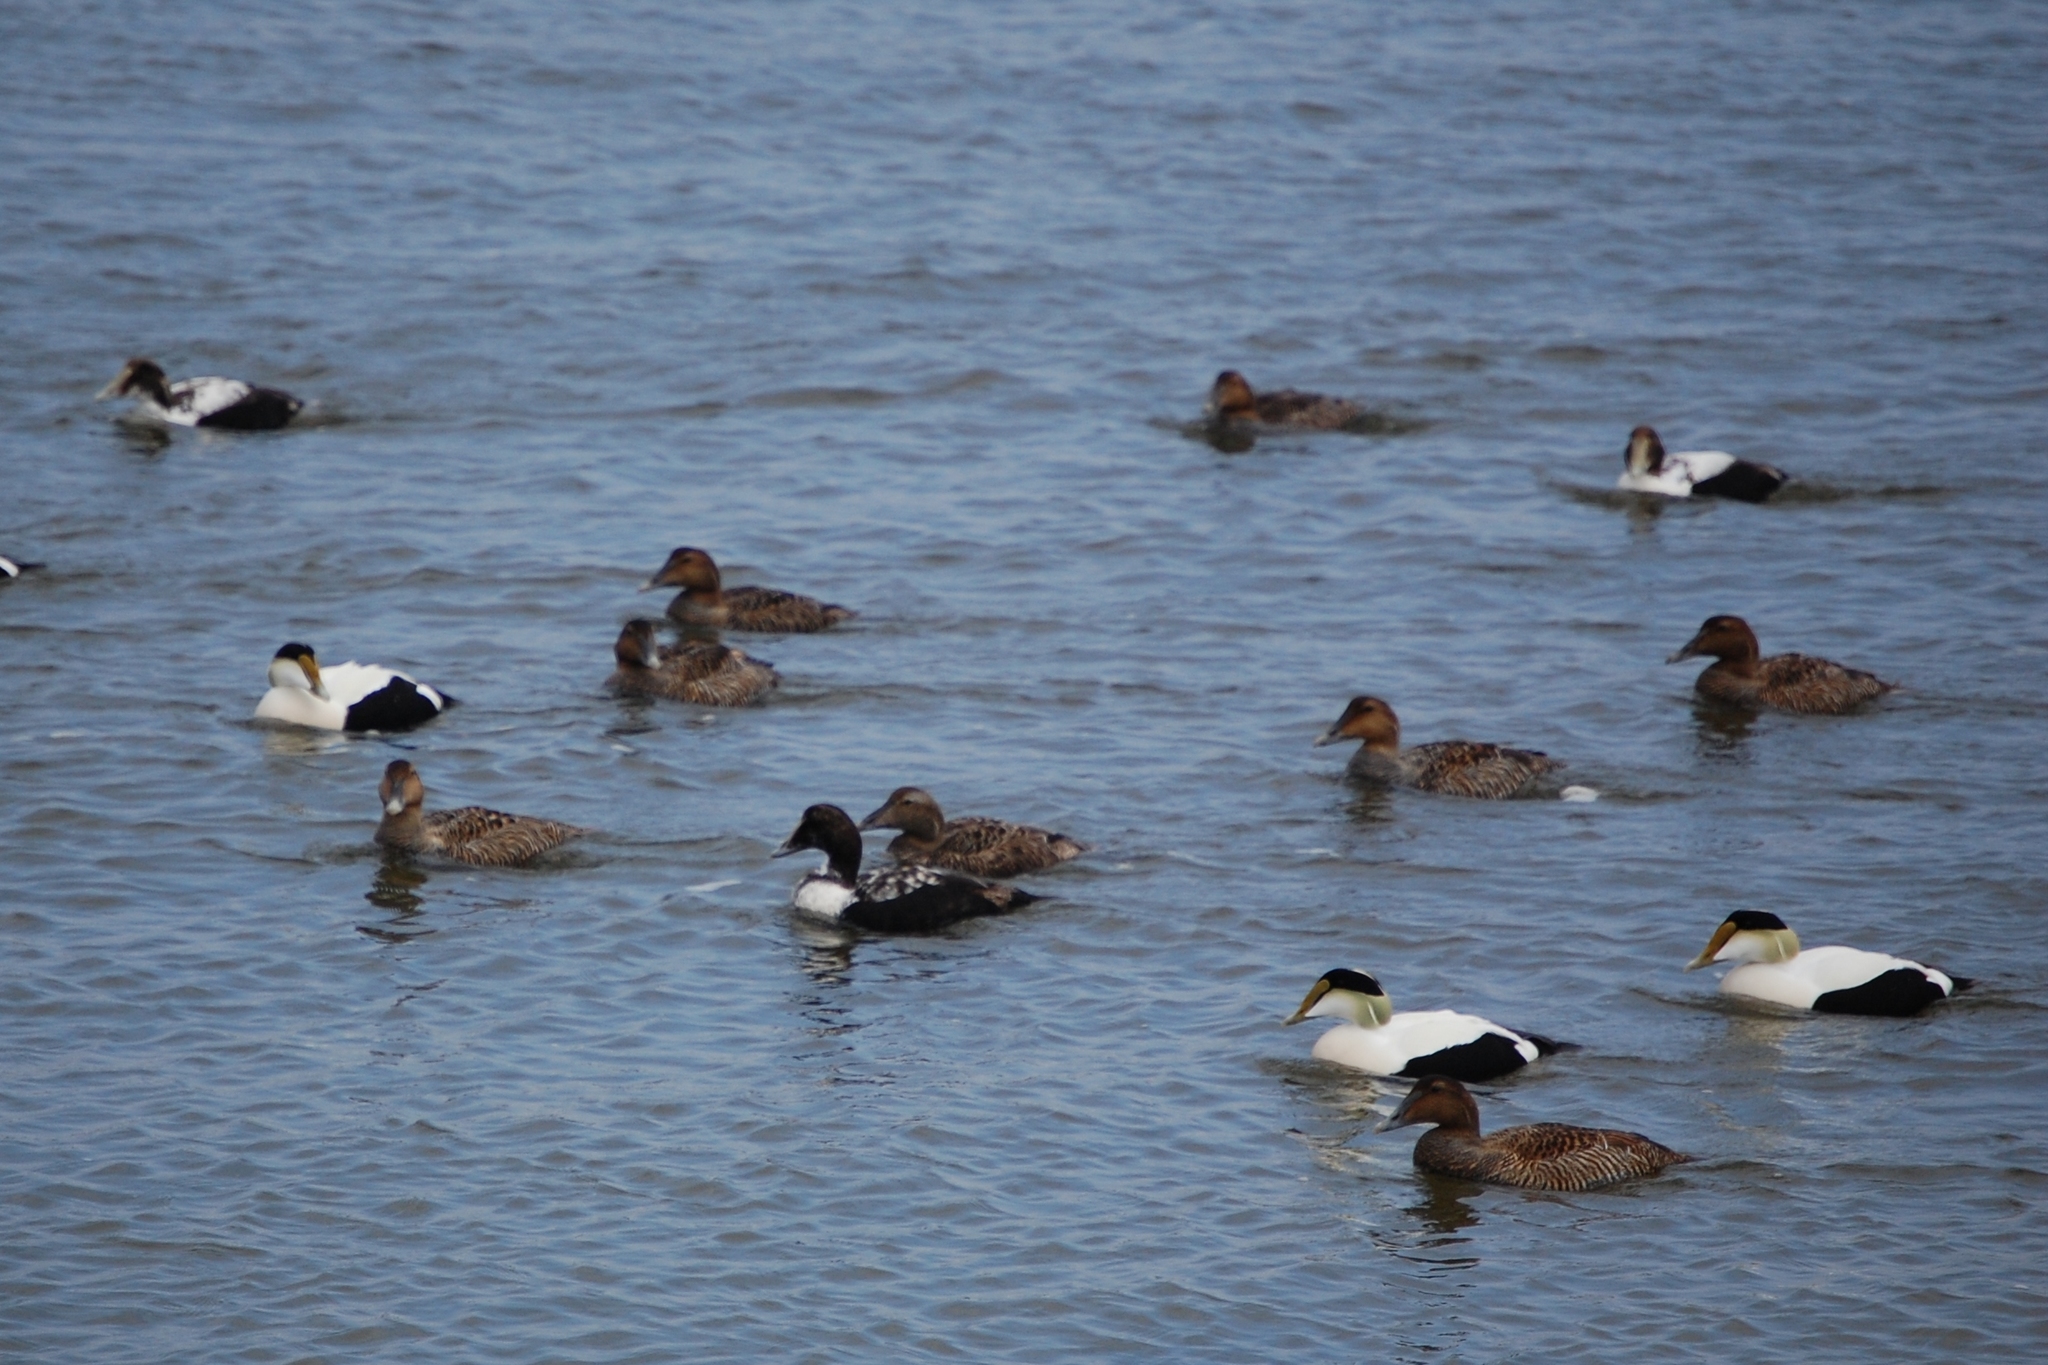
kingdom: Animalia
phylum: Chordata
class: Aves
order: Anseriformes
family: Anatidae
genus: Somateria
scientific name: Somateria mollissima
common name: Common eider
